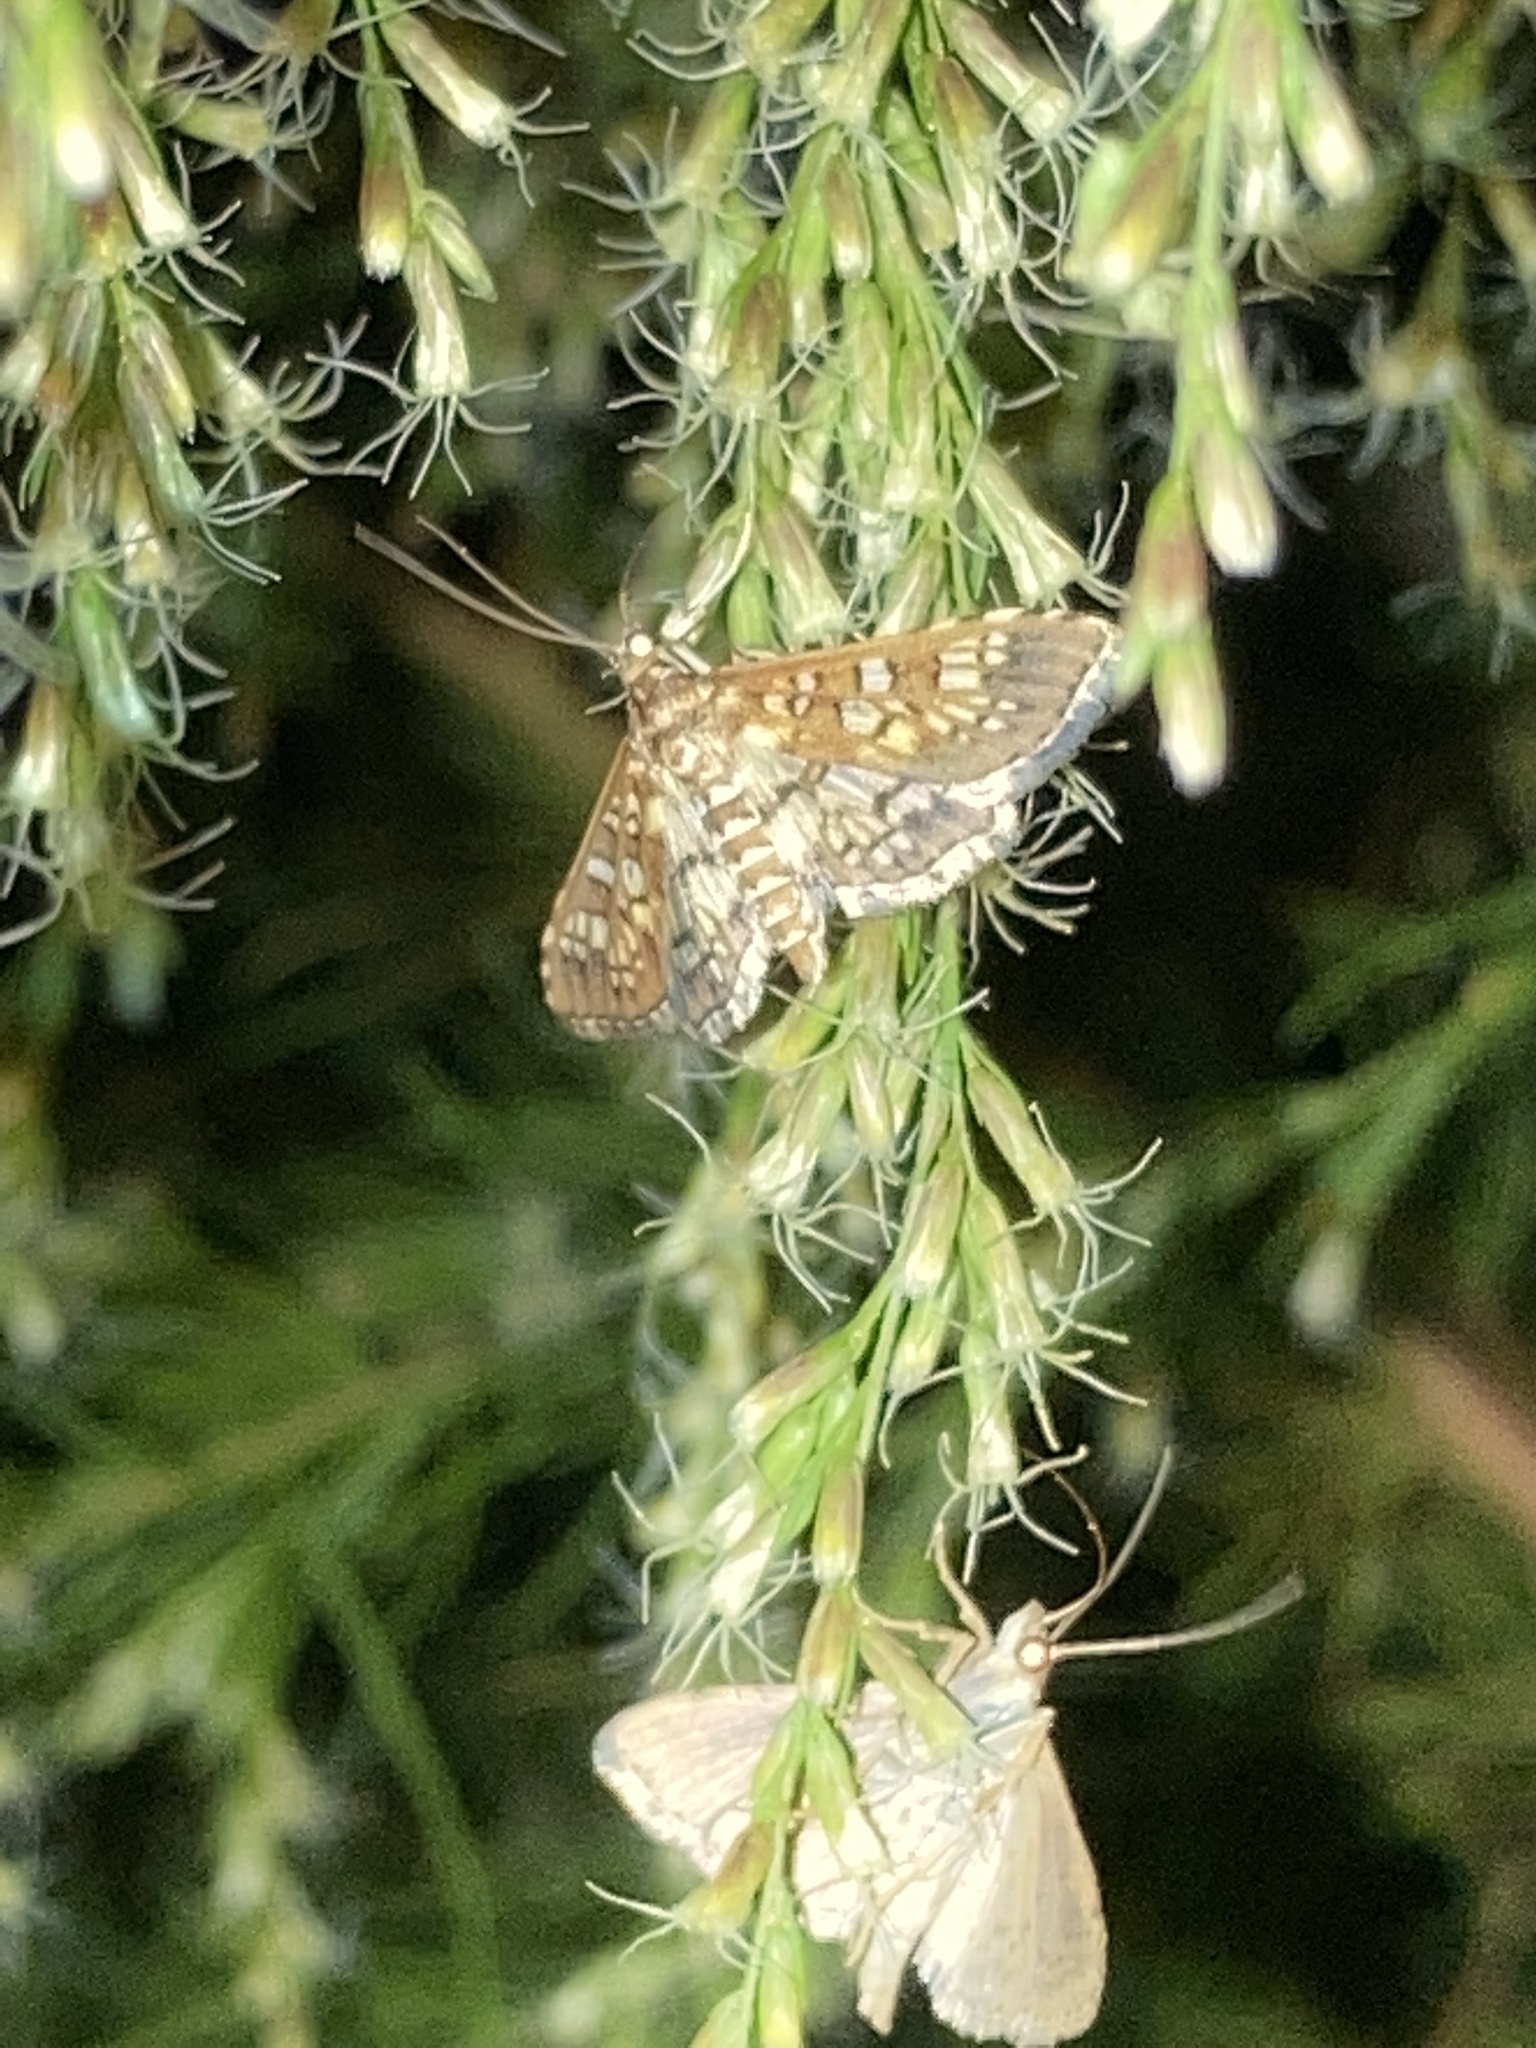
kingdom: Animalia
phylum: Arthropoda
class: Insecta
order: Lepidoptera
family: Crambidae
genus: Samea
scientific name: Samea ecclesialis
